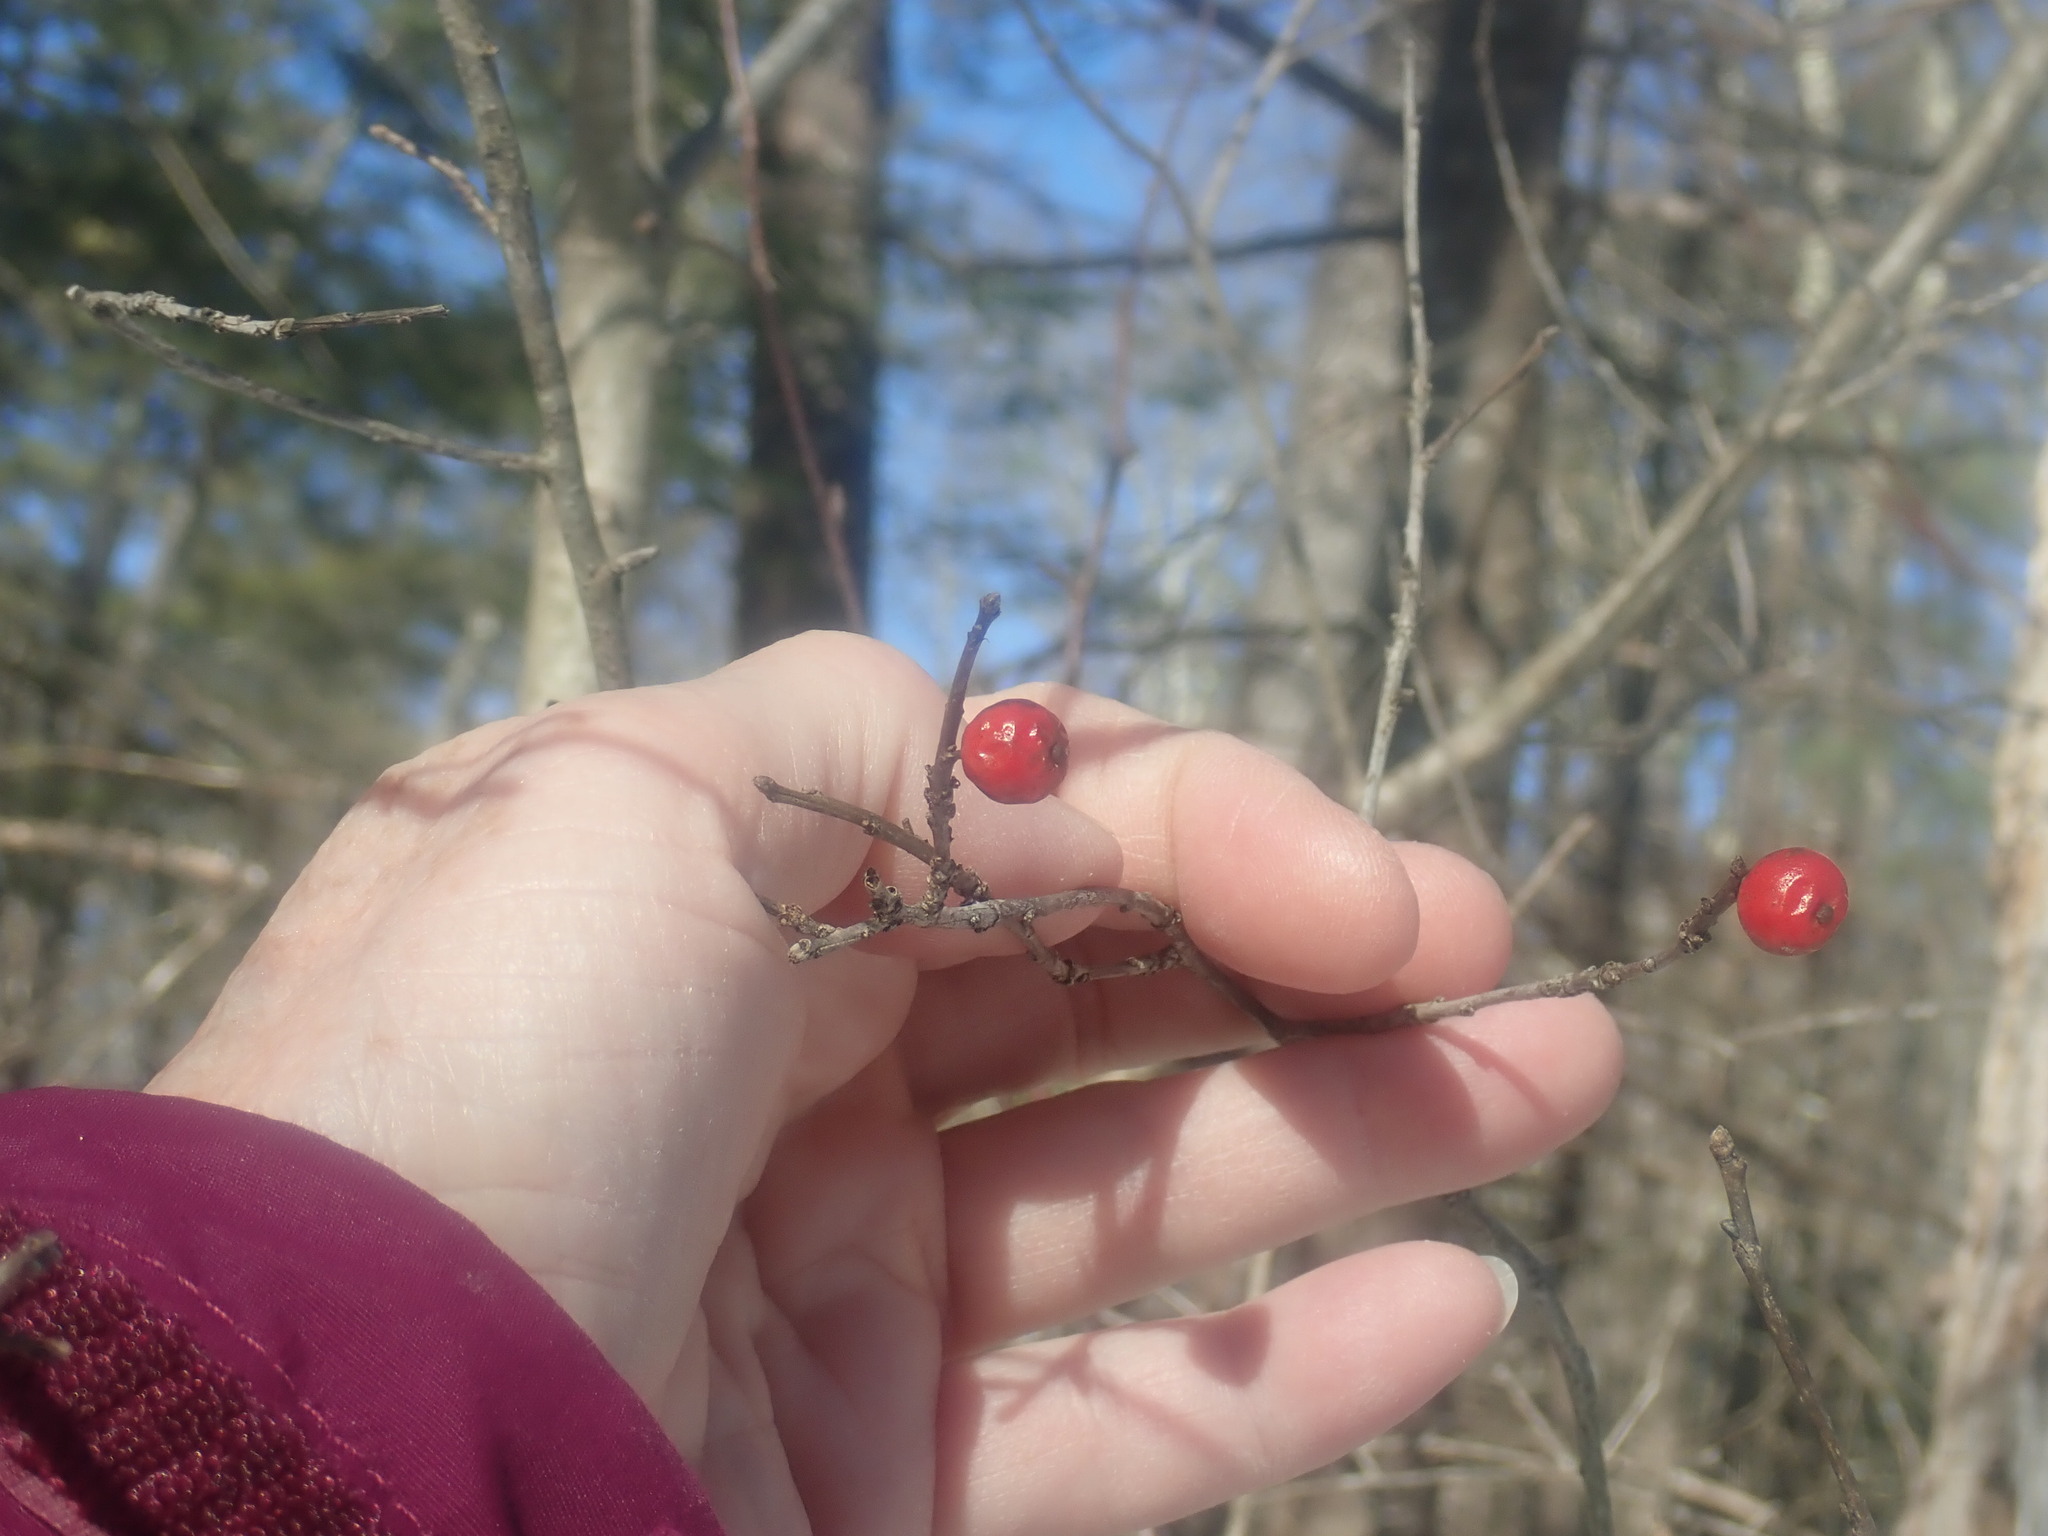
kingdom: Plantae
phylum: Tracheophyta
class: Magnoliopsida
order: Aquifoliales
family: Aquifoliaceae
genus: Ilex
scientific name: Ilex verticillata
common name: Virginia winterberry
